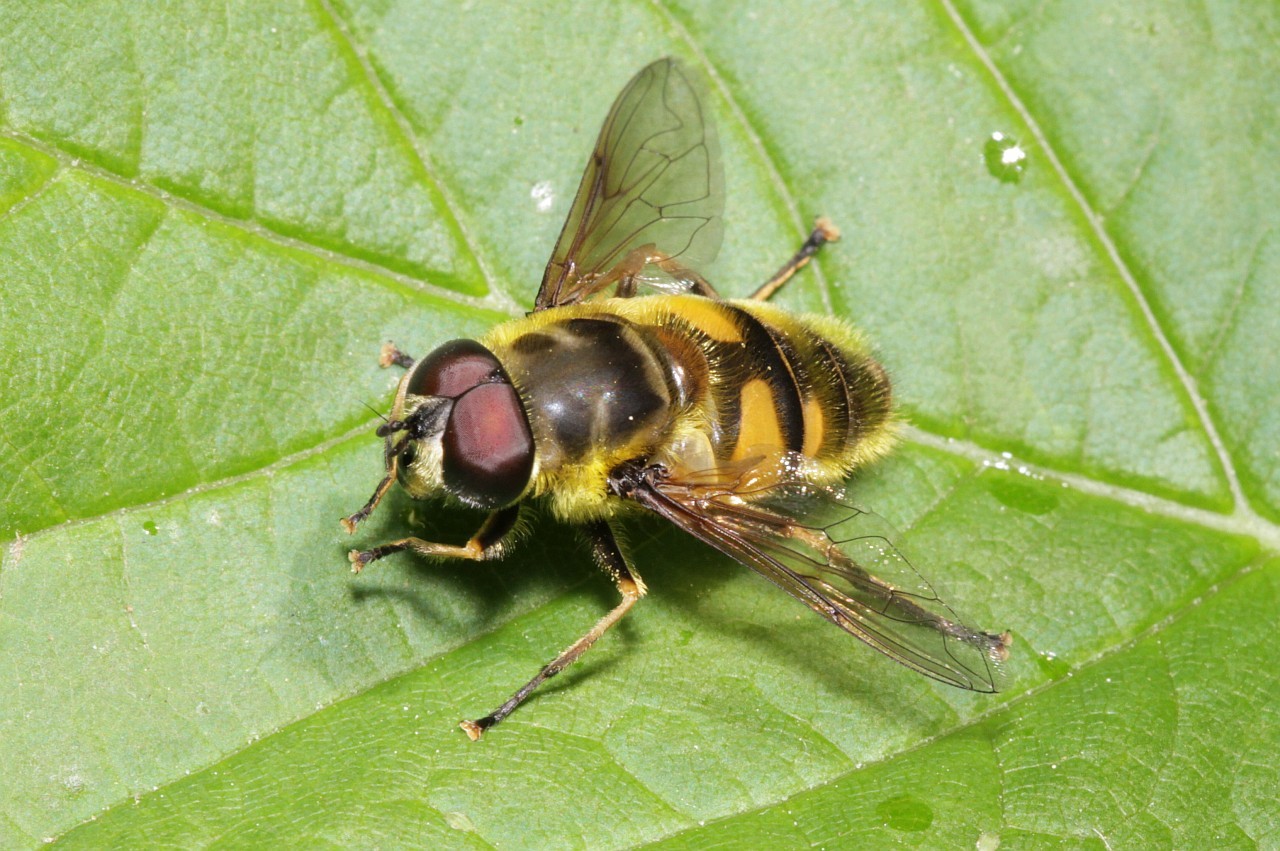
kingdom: Animalia
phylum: Arthropoda
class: Insecta
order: Diptera
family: Syrphidae
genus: Myathropa
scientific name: Myathropa florea
